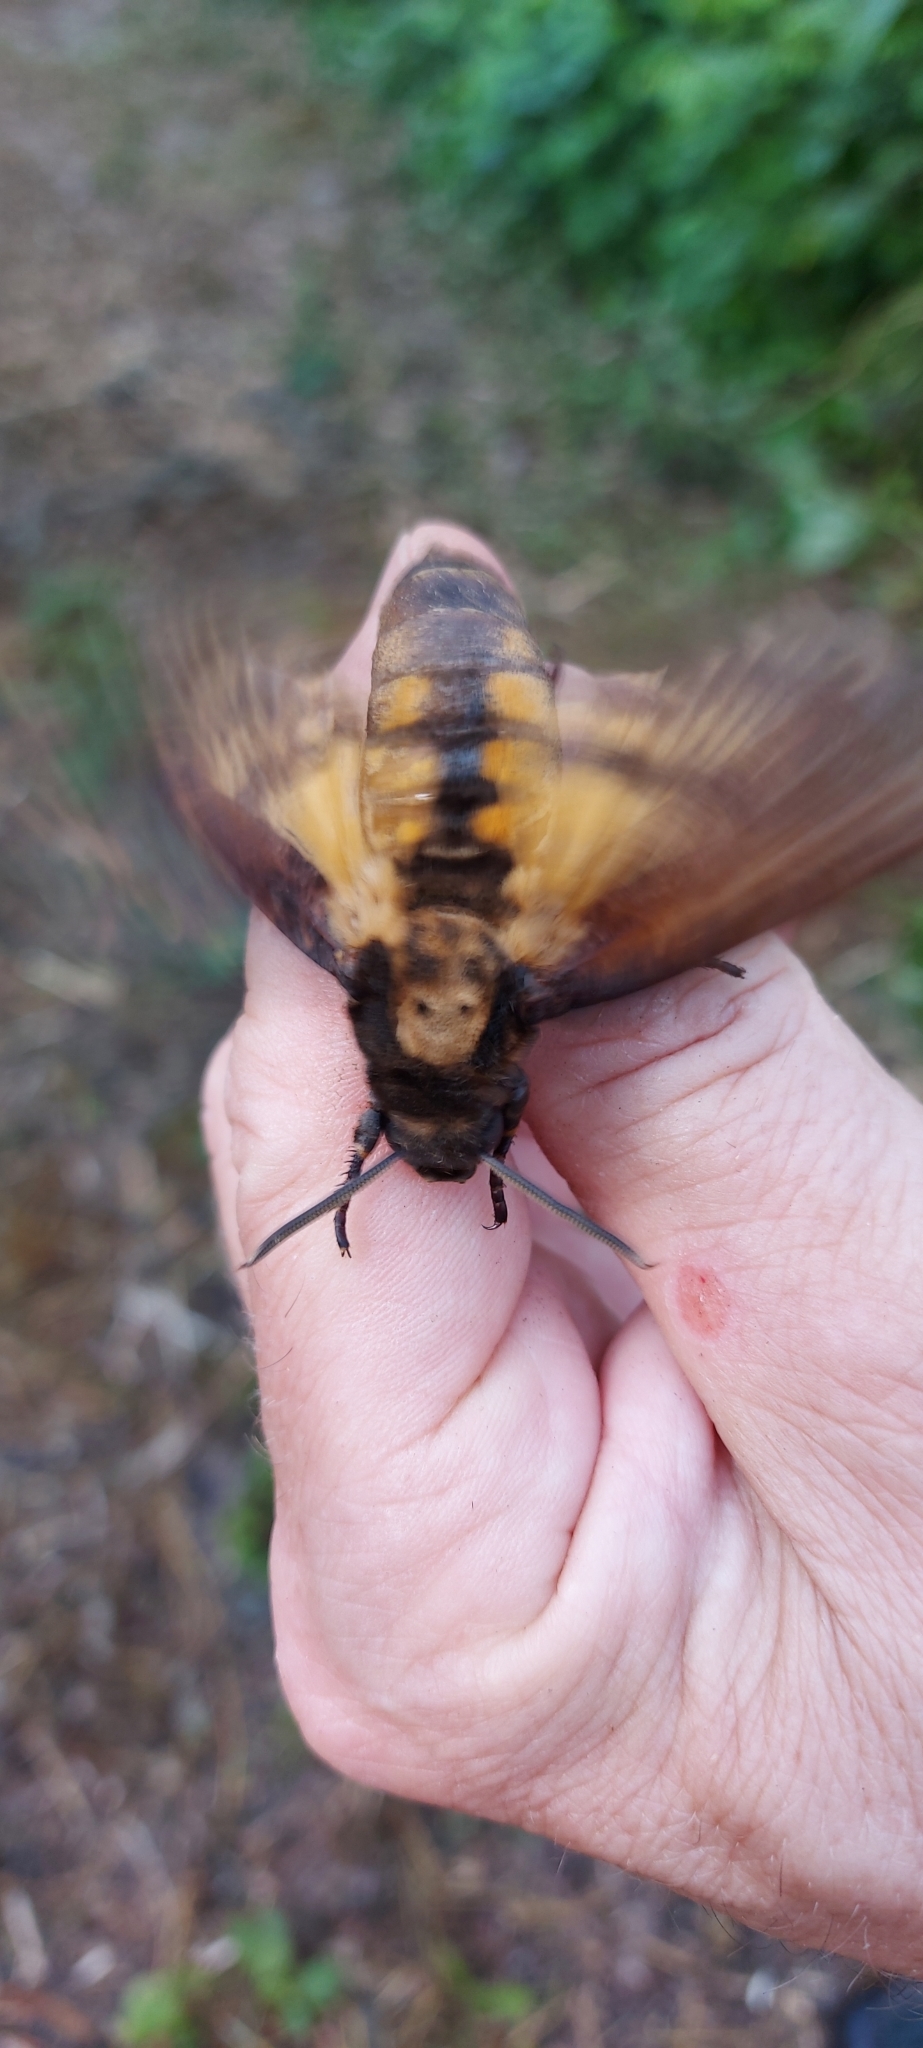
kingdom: Animalia
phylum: Arthropoda
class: Insecta
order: Lepidoptera
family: Sphingidae
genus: Acherontia
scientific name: Acherontia atropos
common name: Death's-head hawk moth
